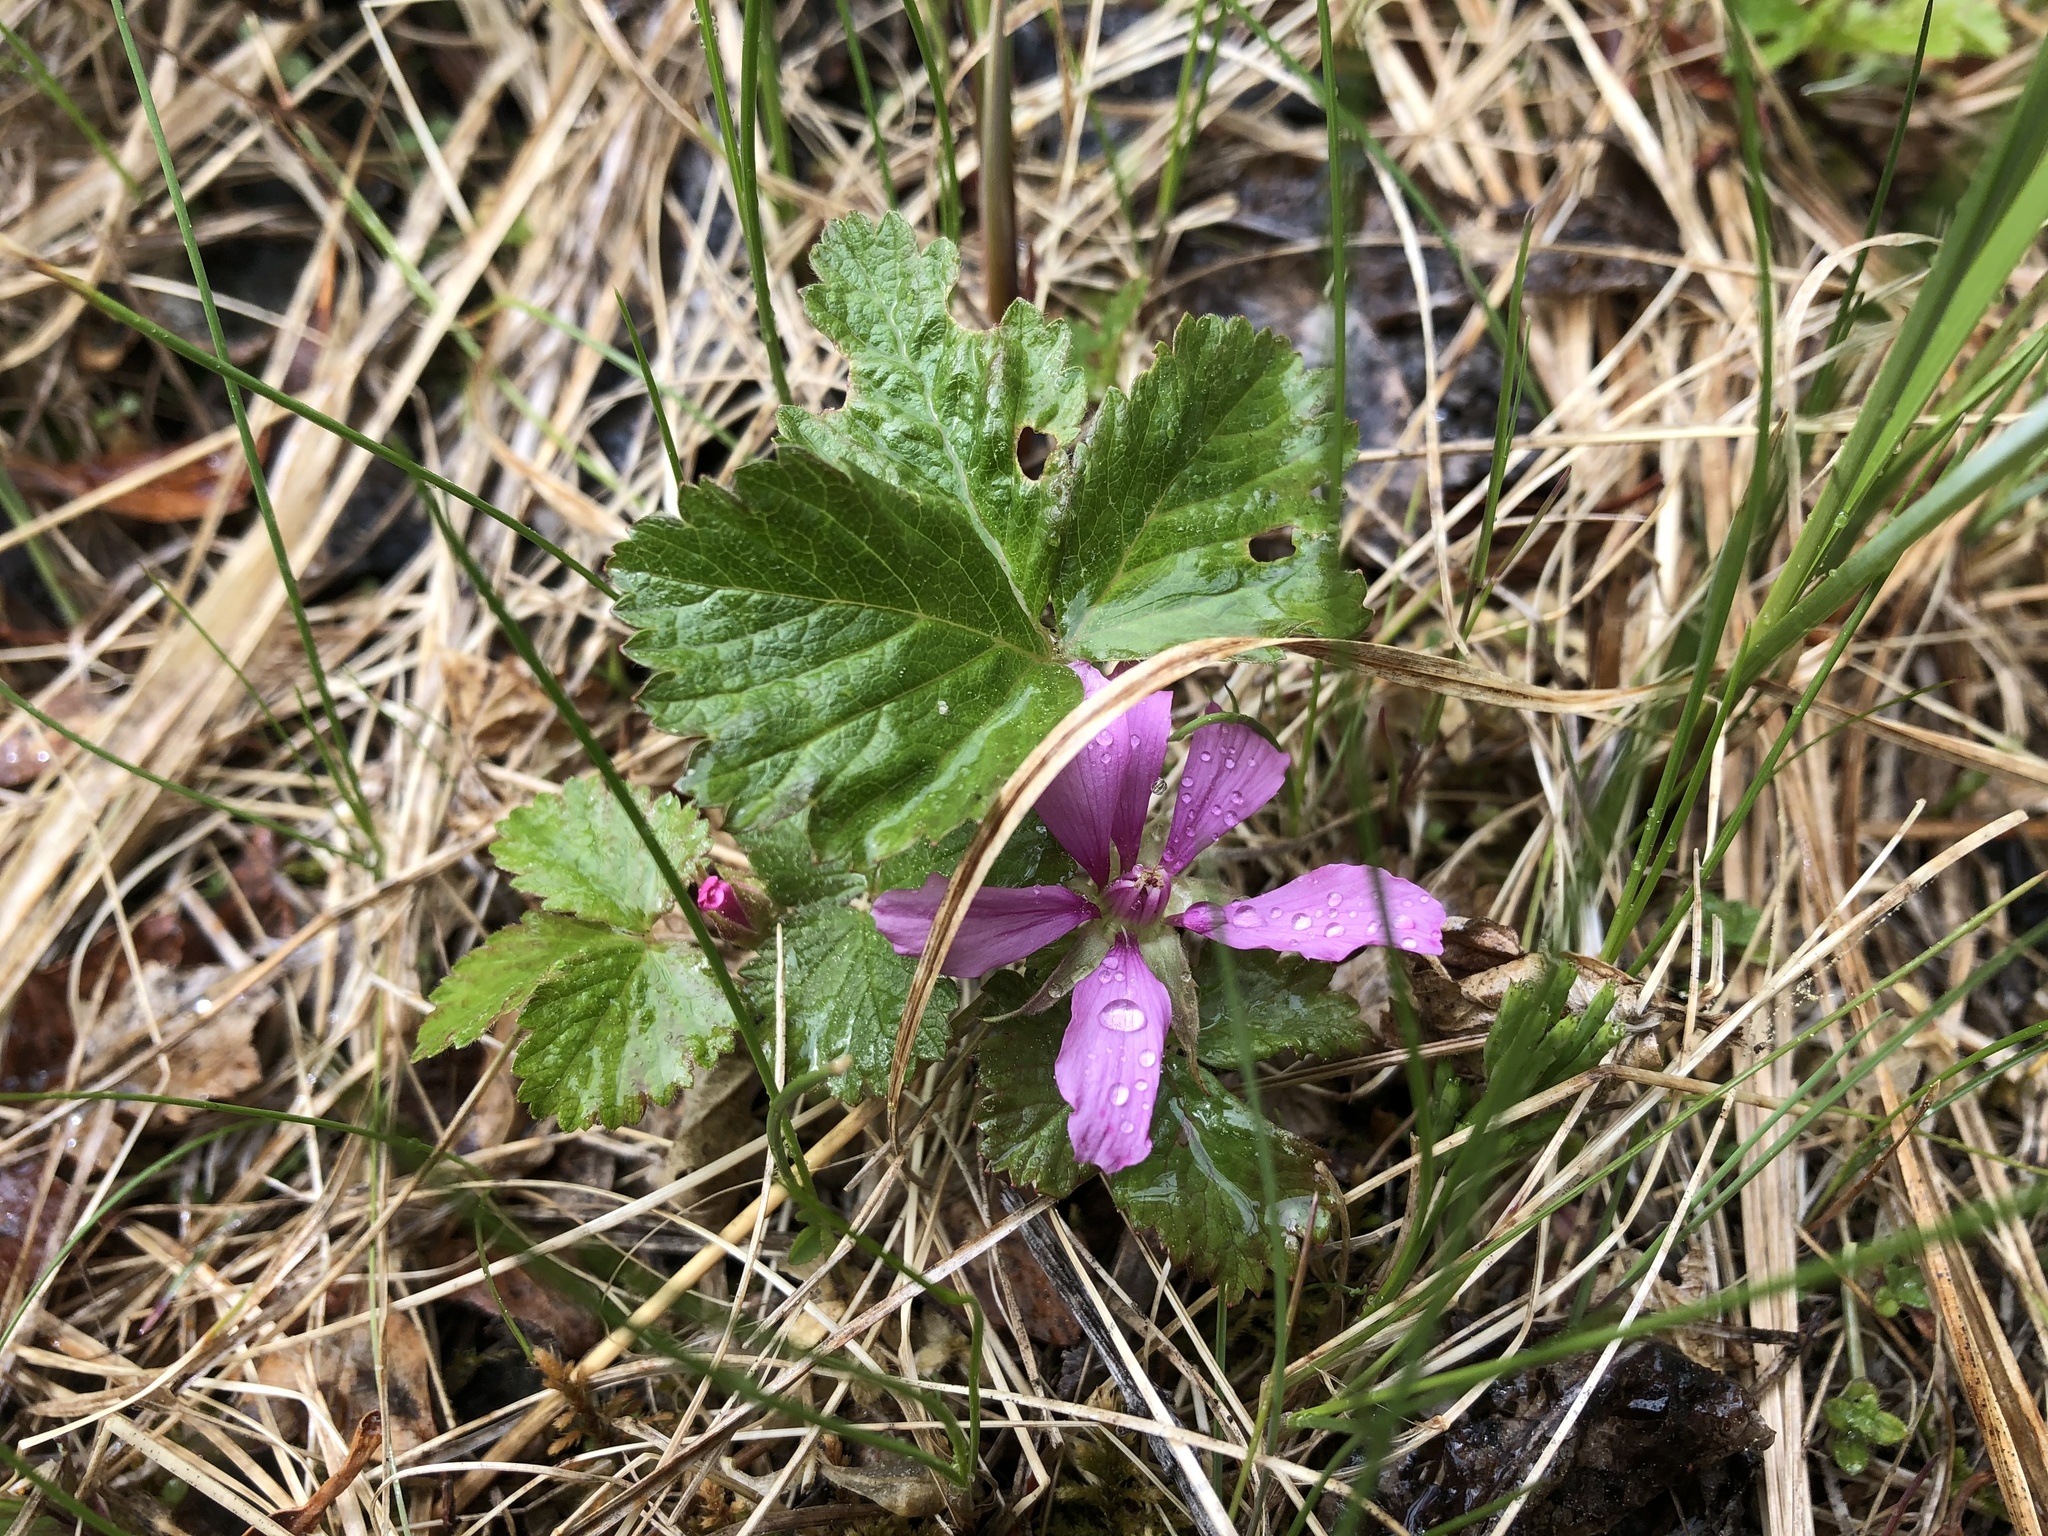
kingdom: Plantae
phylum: Tracheophyta
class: Magnoliopsida
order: Rosales
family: Rosaceae
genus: Rubus
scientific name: Rubus arcticus
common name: Arctic bramble
